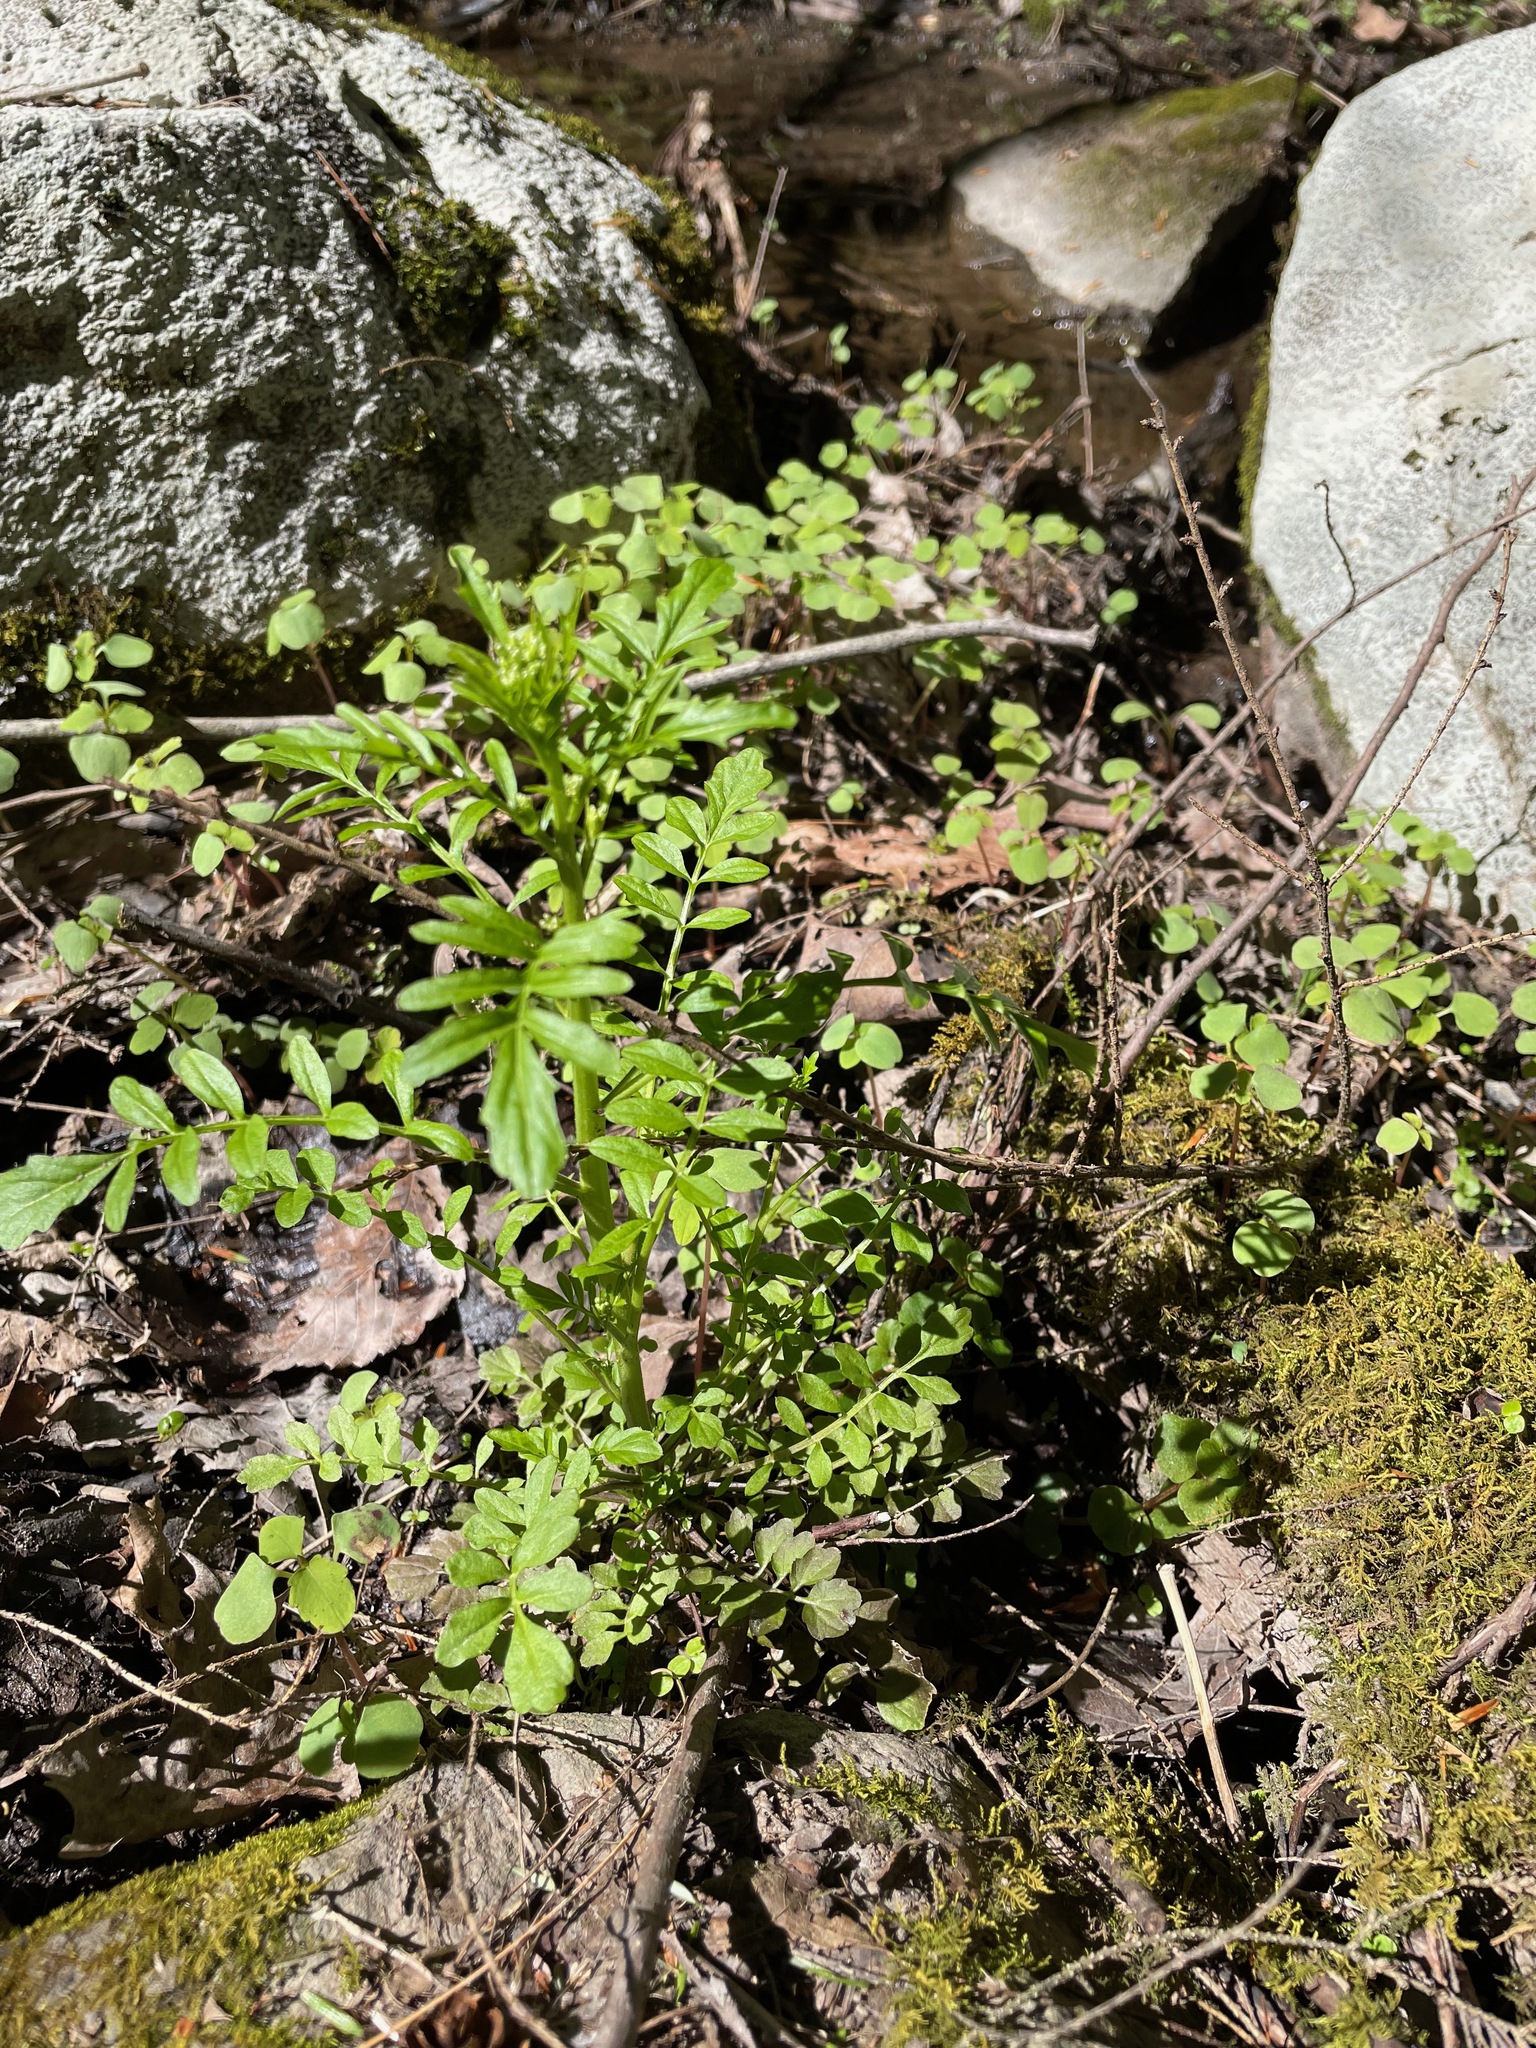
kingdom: Plantae
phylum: Tracheophyta
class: Magnoliopsida
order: Brassicales
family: Brassicaceae
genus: Cardamine
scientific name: Cardamine pensylvanica
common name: Pennsylvania bittercress
